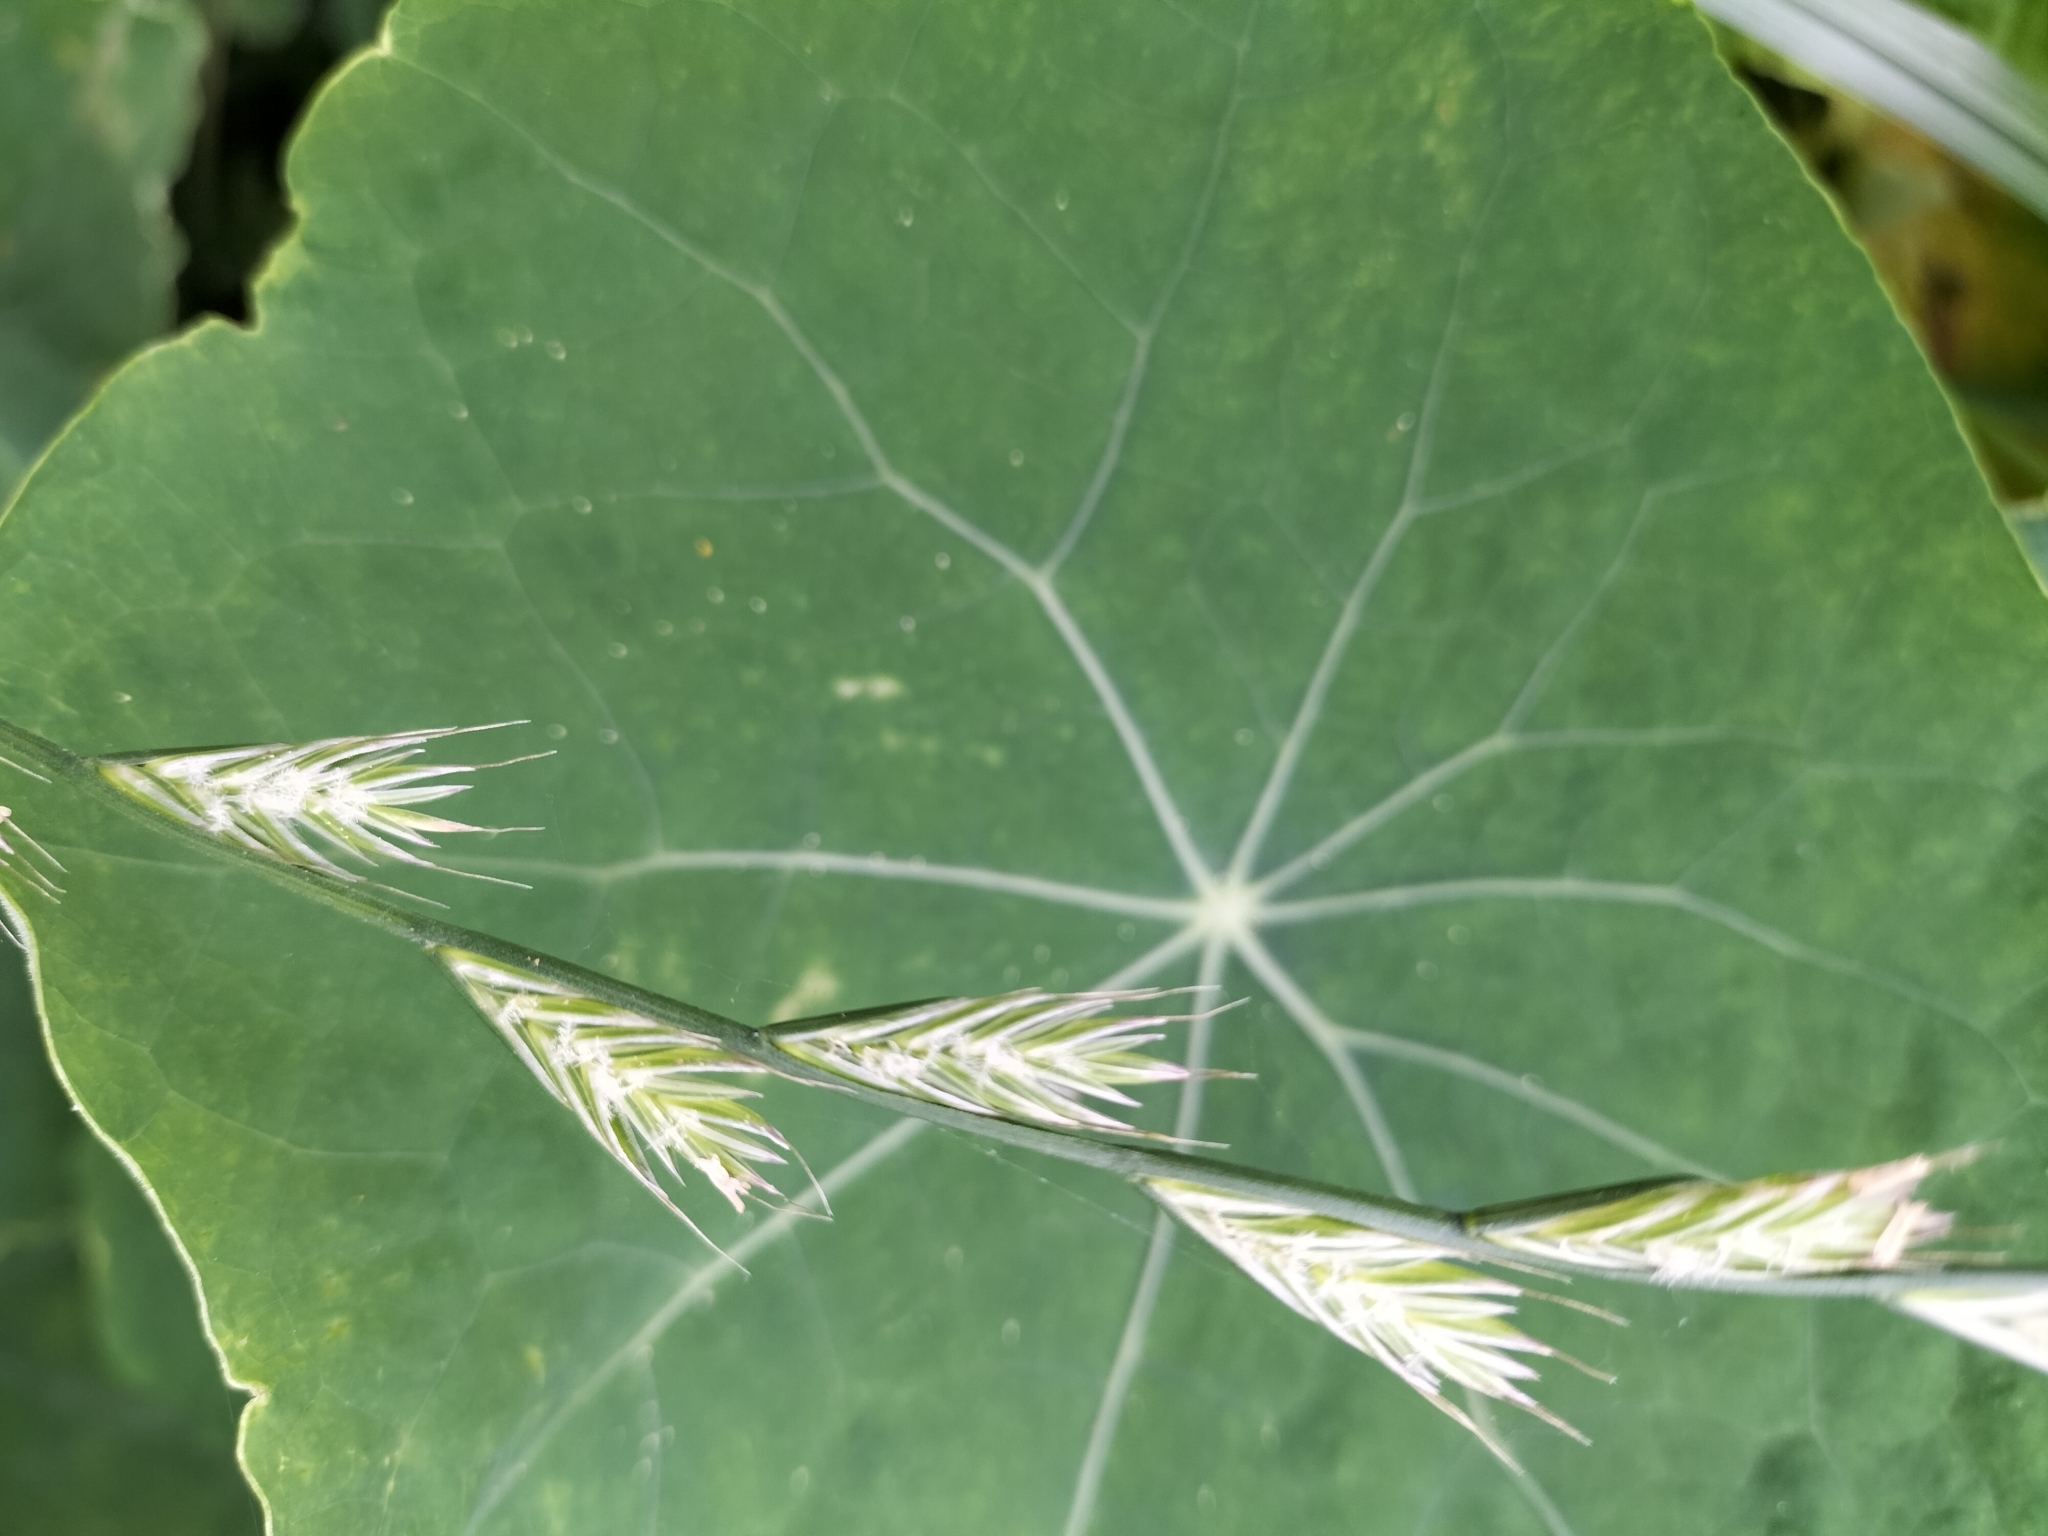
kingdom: Plantae
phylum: Tracheophyta
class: Liliopsida
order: Poales
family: Poaceae
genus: Lolium
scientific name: Lolium multiflorum
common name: Annual ryegrass
